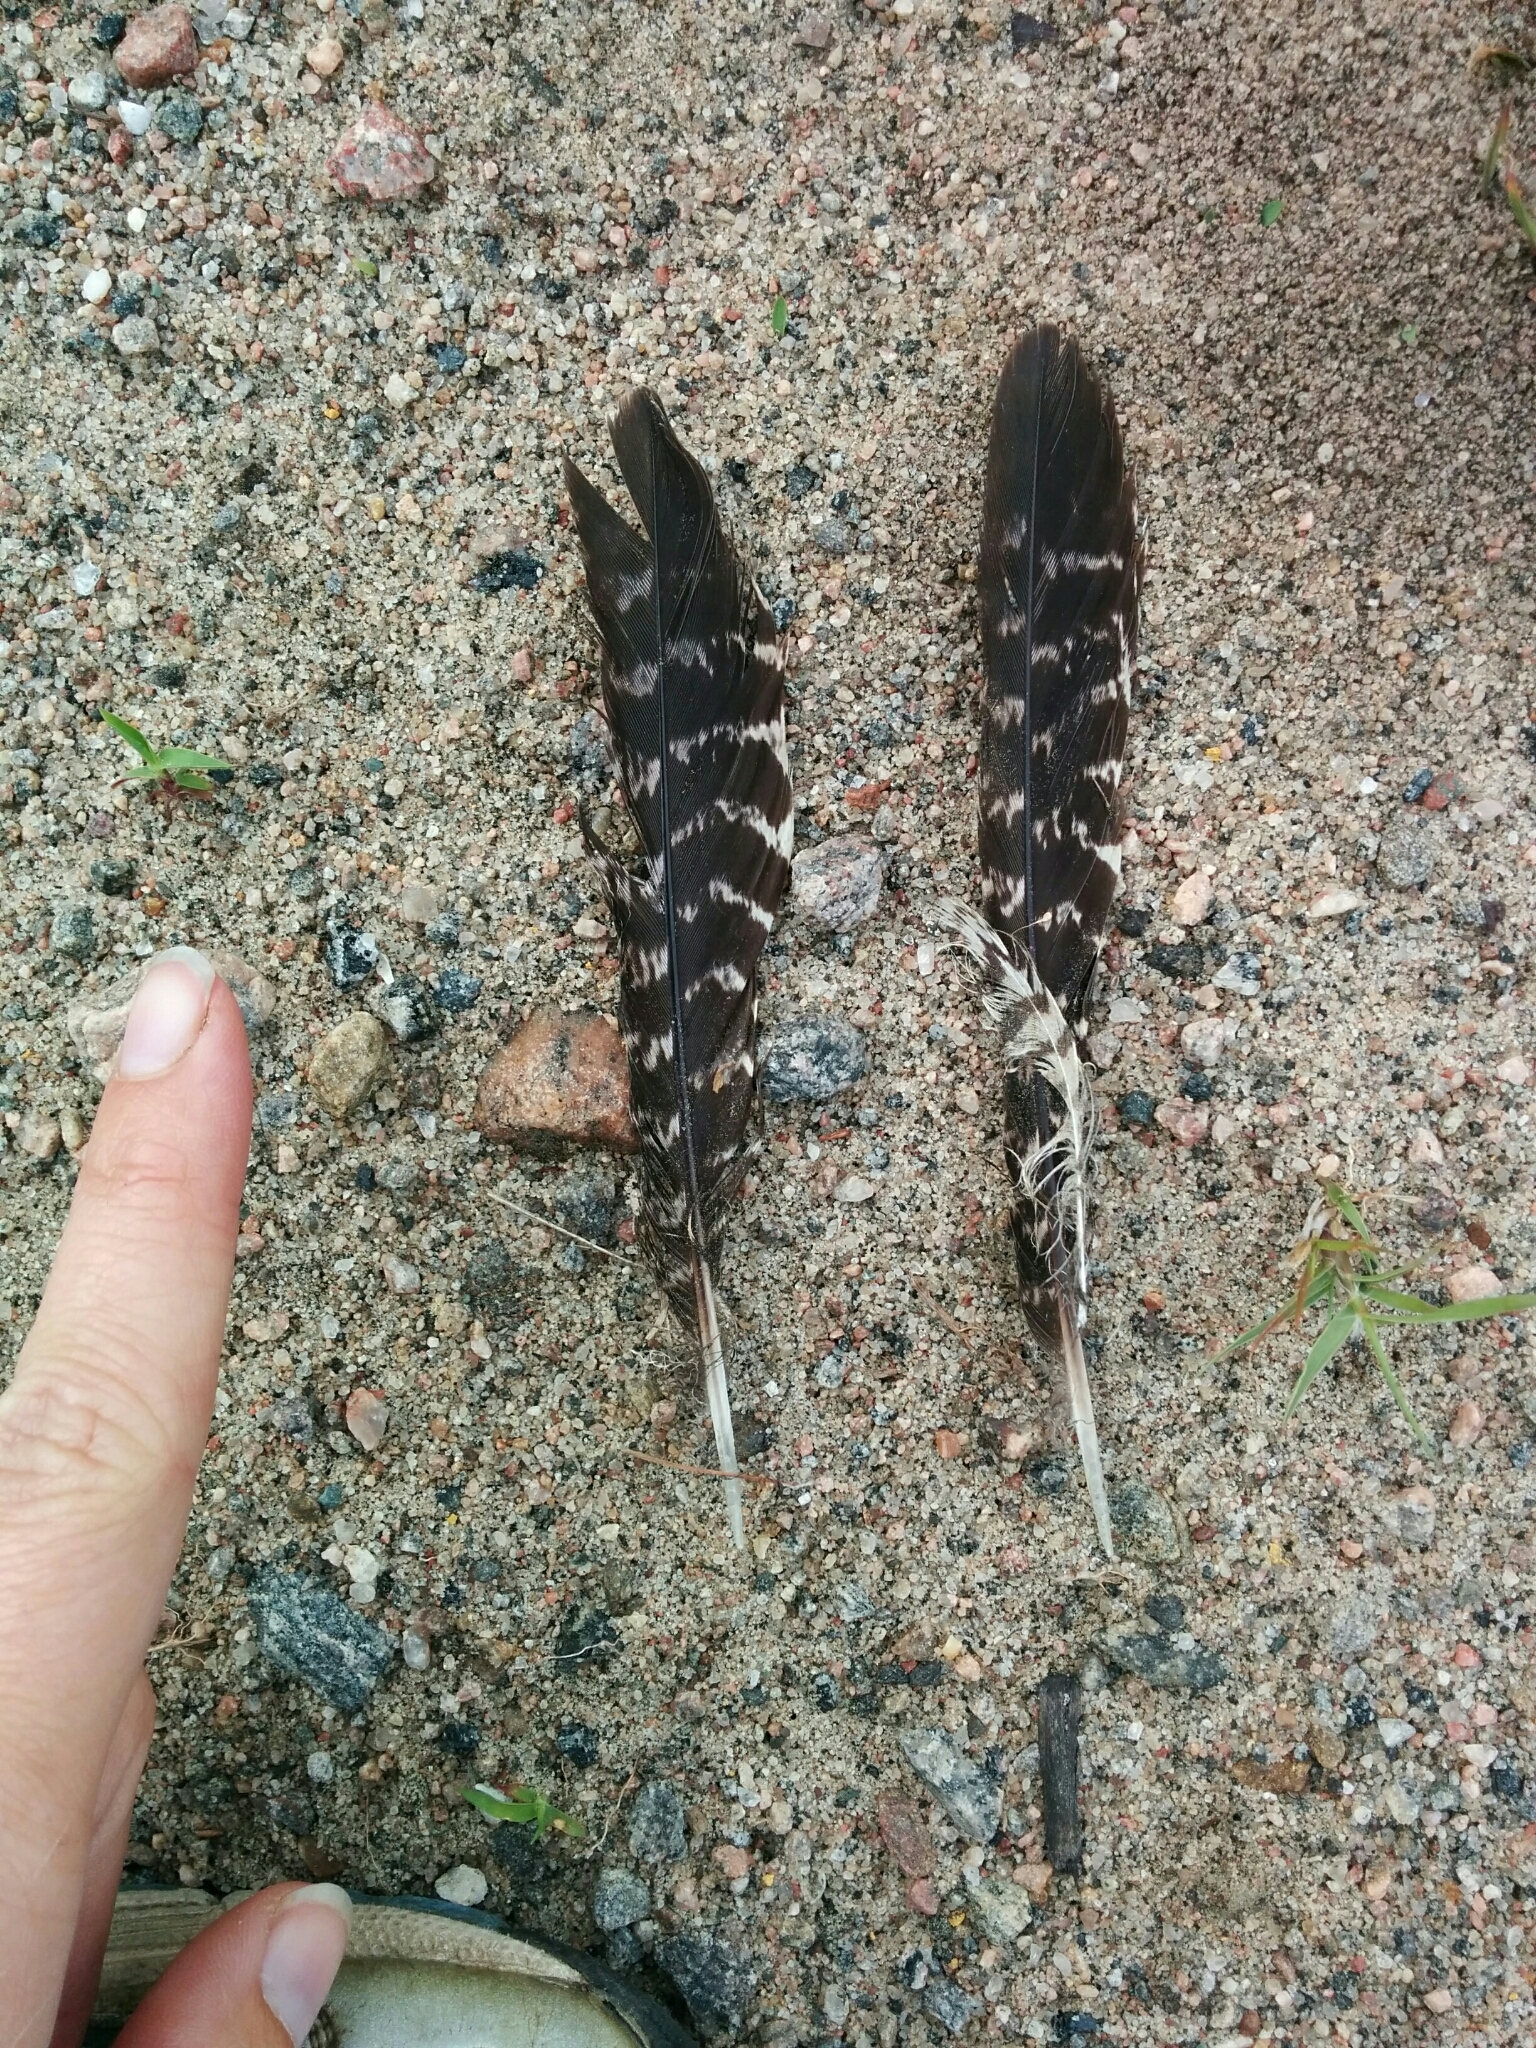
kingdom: Animalia
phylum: Chordata
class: Aves
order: Caprimulgiformes
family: Caprimulgidae
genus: Chordeiles
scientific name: Chordeiles minor
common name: Common nighthawk
